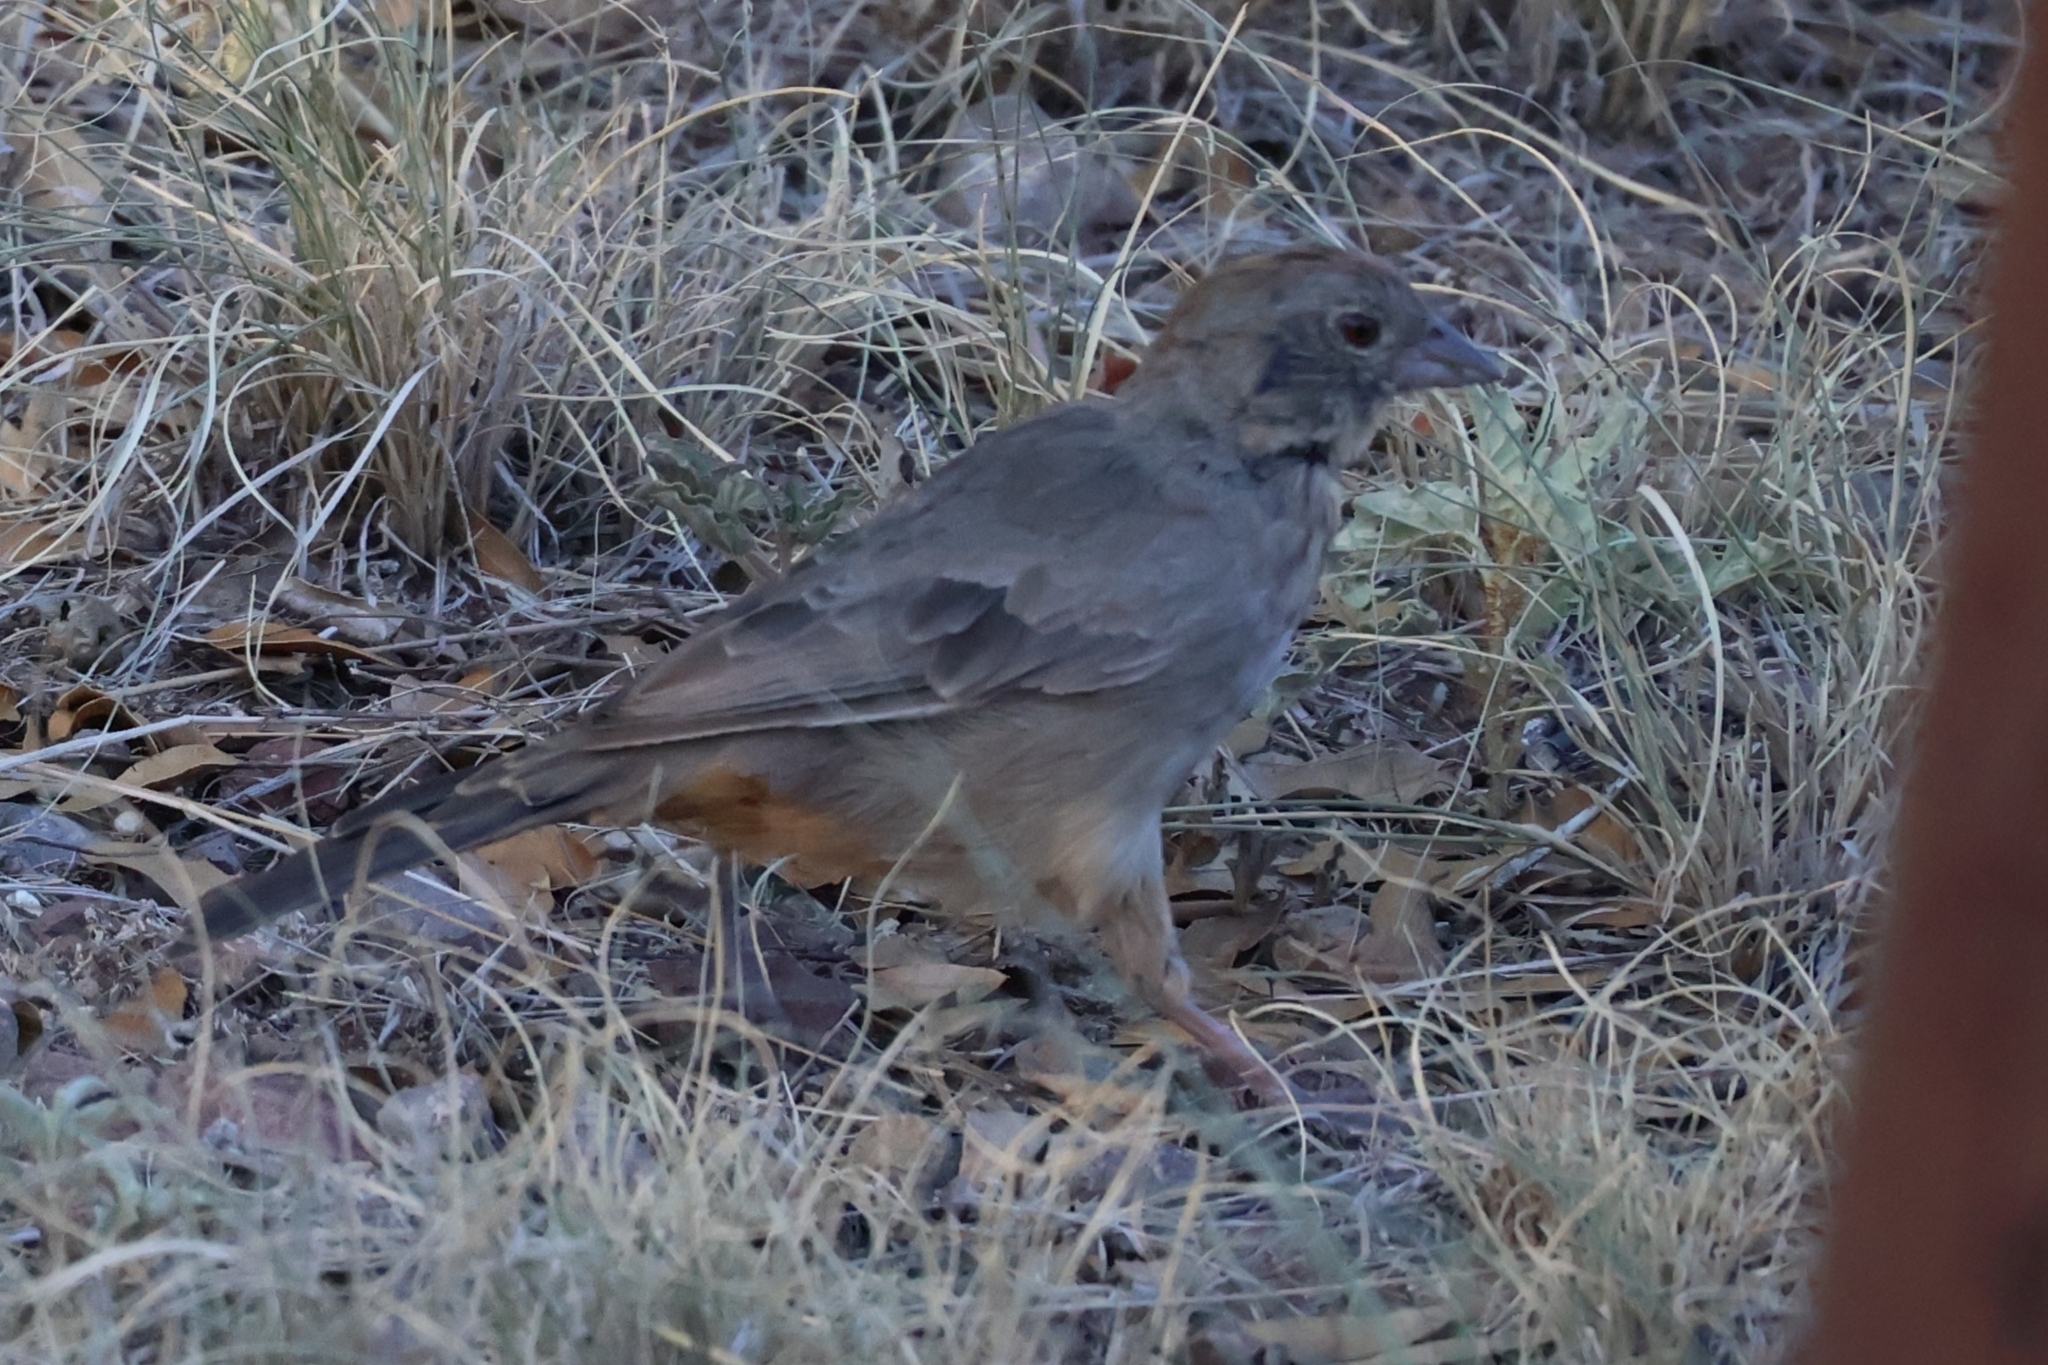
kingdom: Animalia
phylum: Chordata
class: Aves
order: Passeriformes
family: Passerellidae
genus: Melozone
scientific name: Melozone fusca
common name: Canyon towhee
